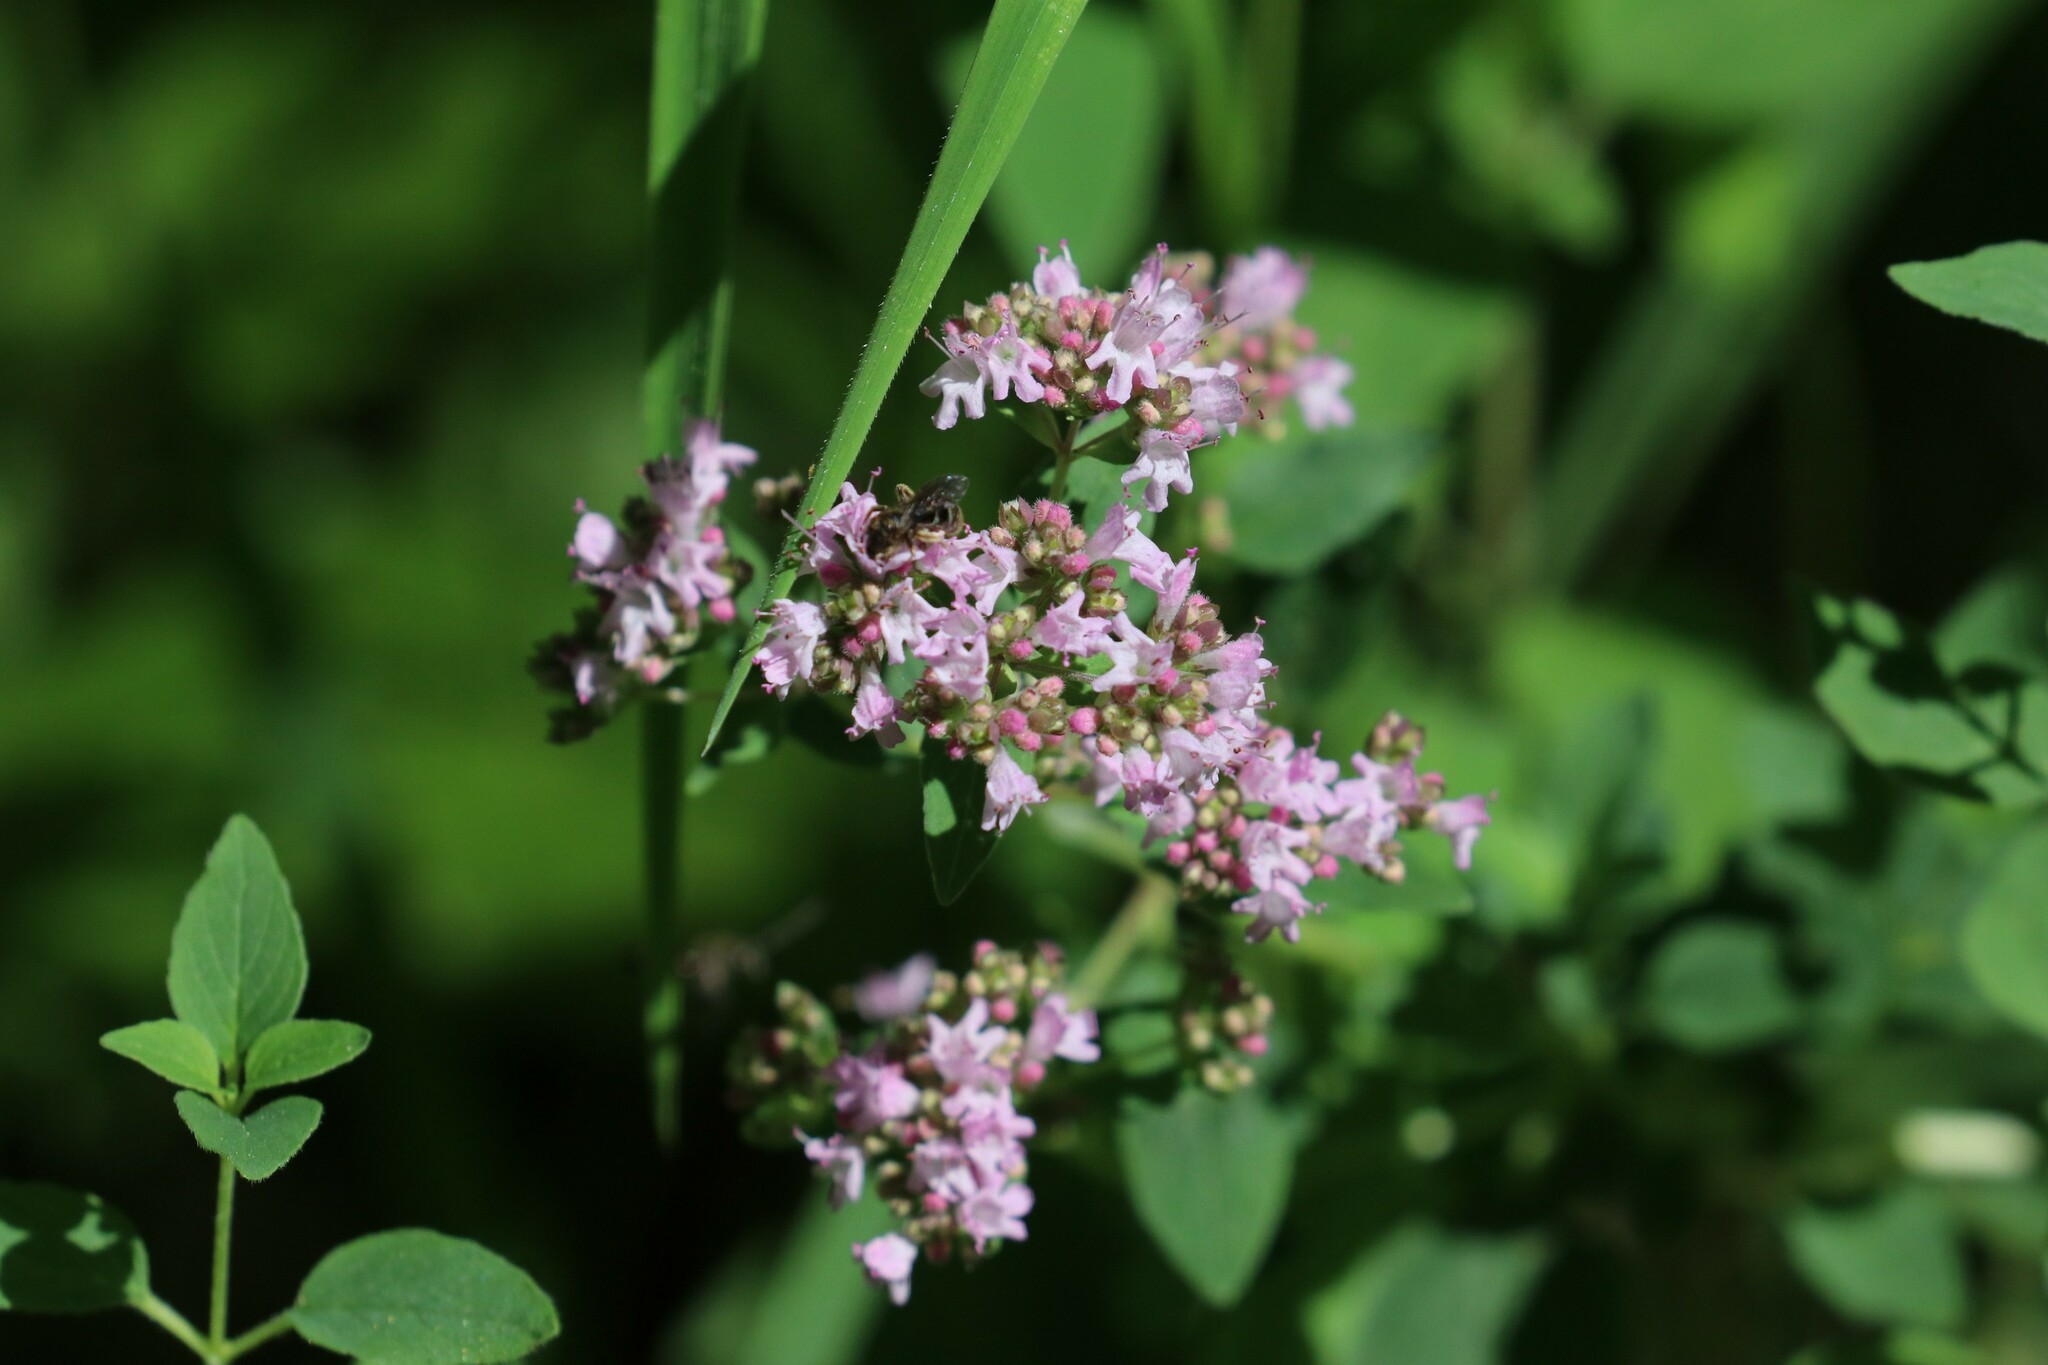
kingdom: Plantae
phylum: Tracheophyta
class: Magnoliopsida
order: Lamiales
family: Lamiaceae
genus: Origanum
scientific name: Origanum vulgare
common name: Wild marjoram
